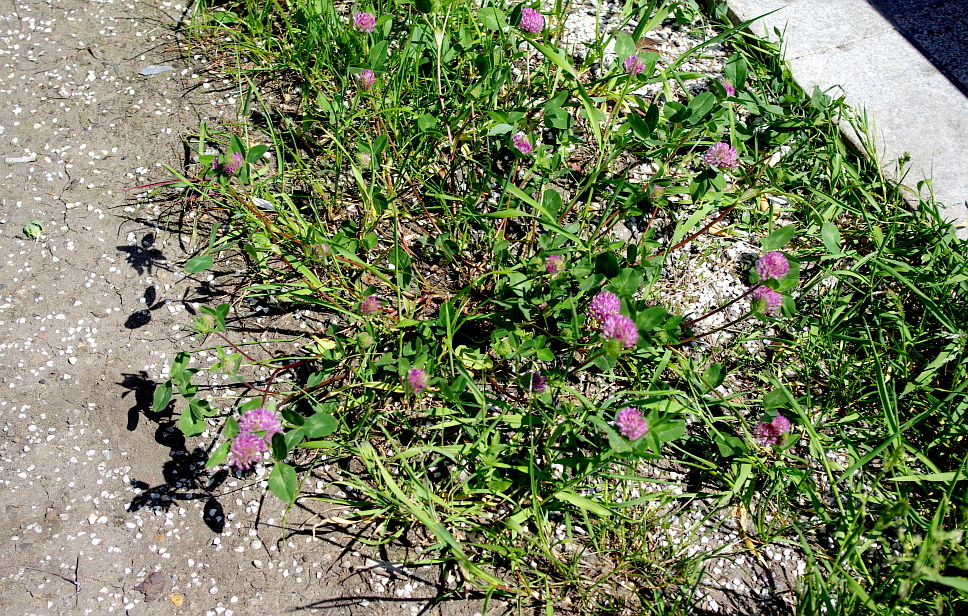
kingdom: Plantae
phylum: Tracheophyta
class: Magnoliopsida
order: Fabales
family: Fabaceae
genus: Trifolium
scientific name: Trifolium pratense
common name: Red clover
